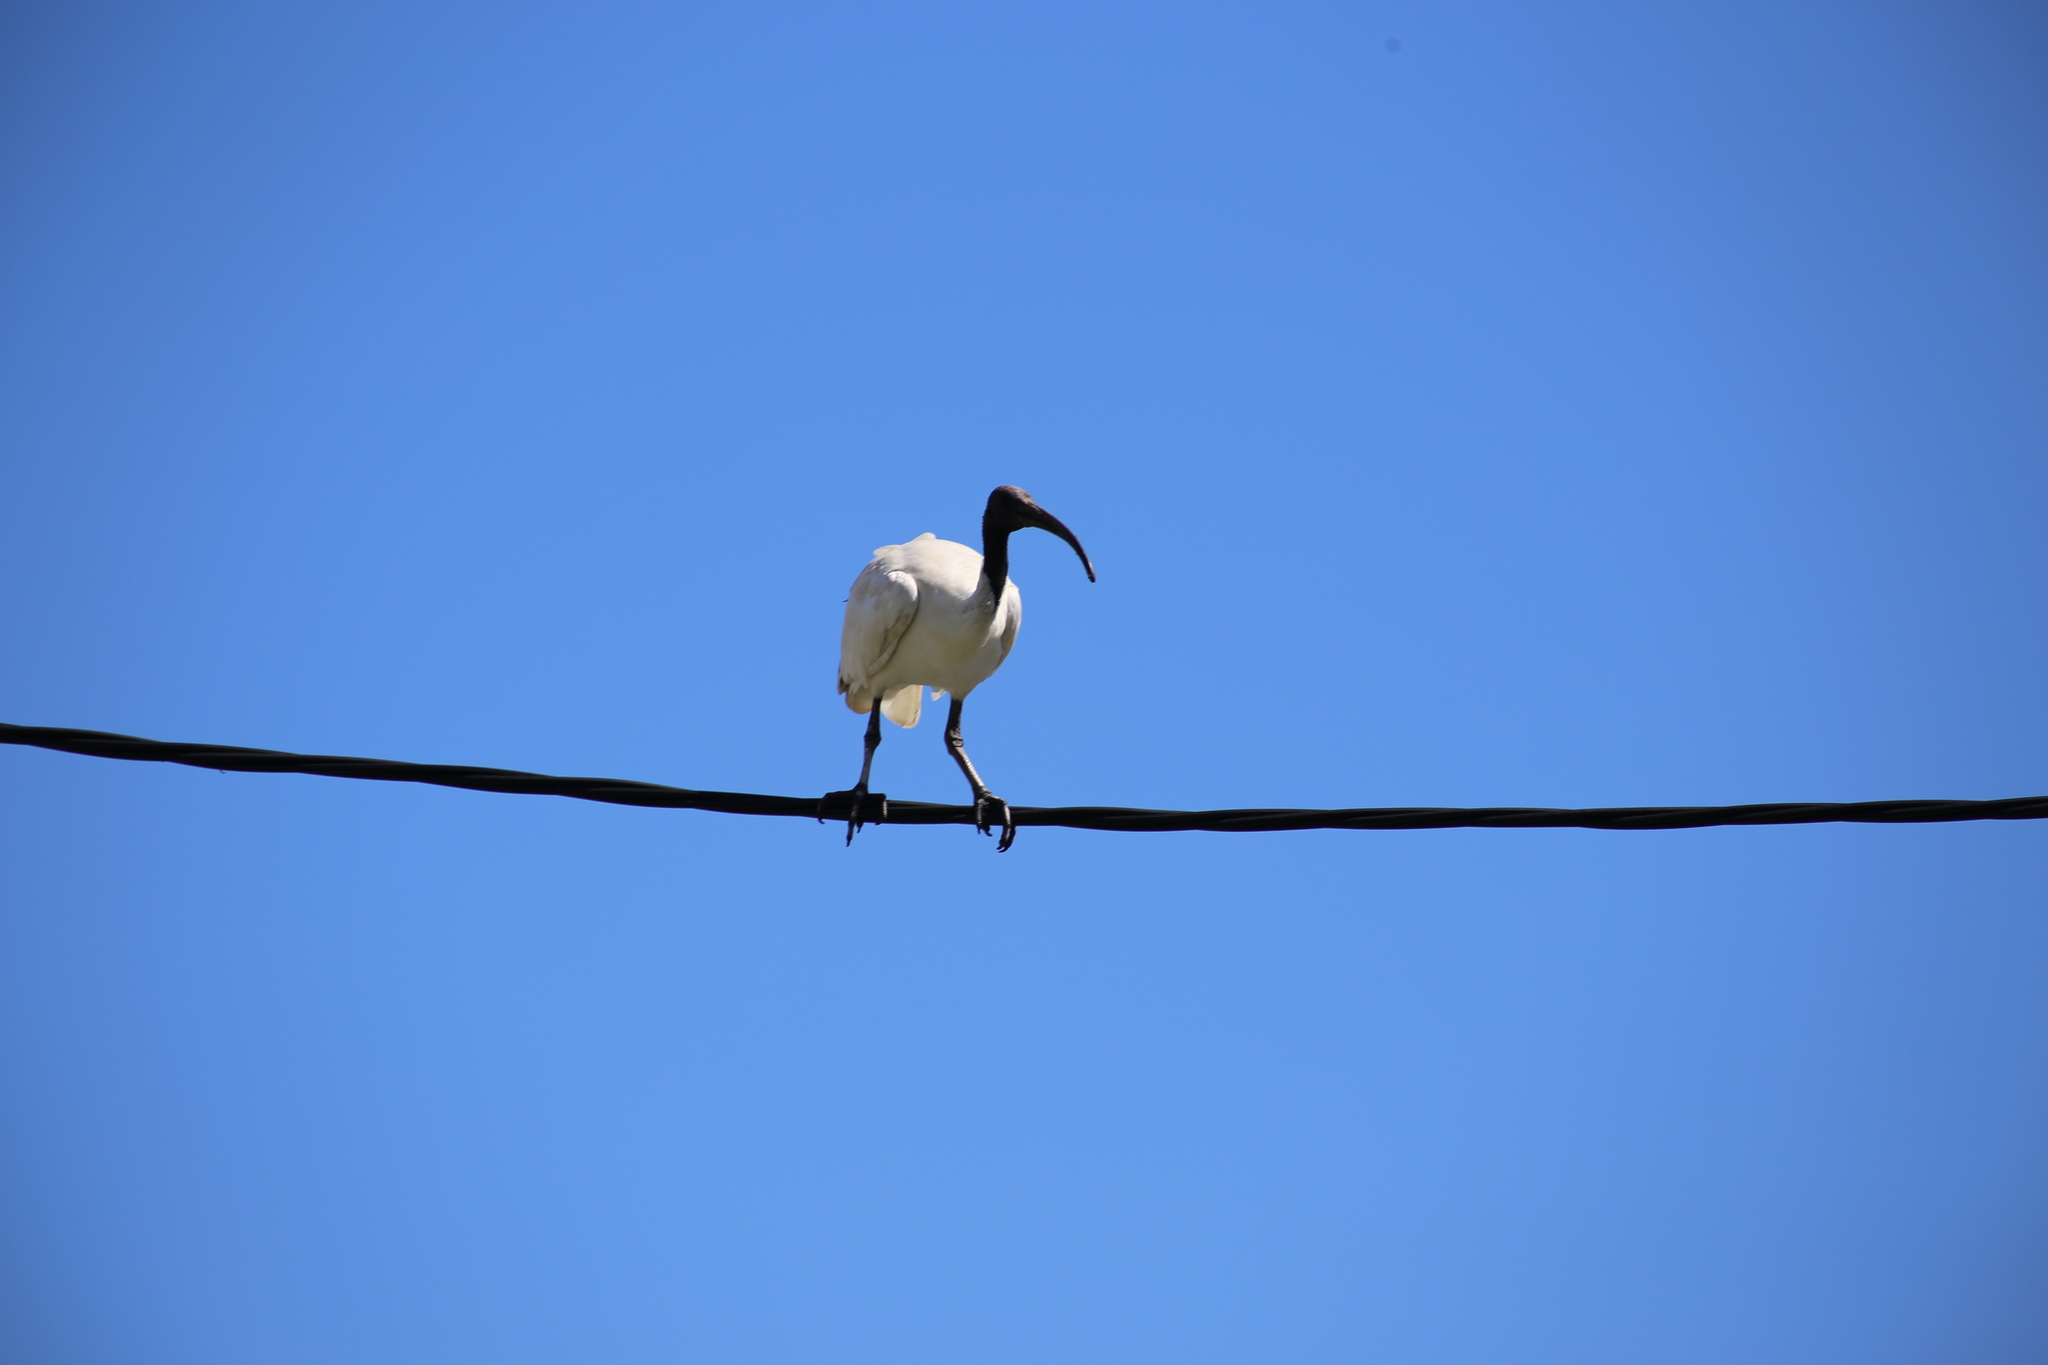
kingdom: Animalia
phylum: Chordata
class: Aves
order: Pelecaniformes
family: Threskiornithidae
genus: Threskiornis
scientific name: Threskiornis molucca
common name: Australian white ibis
